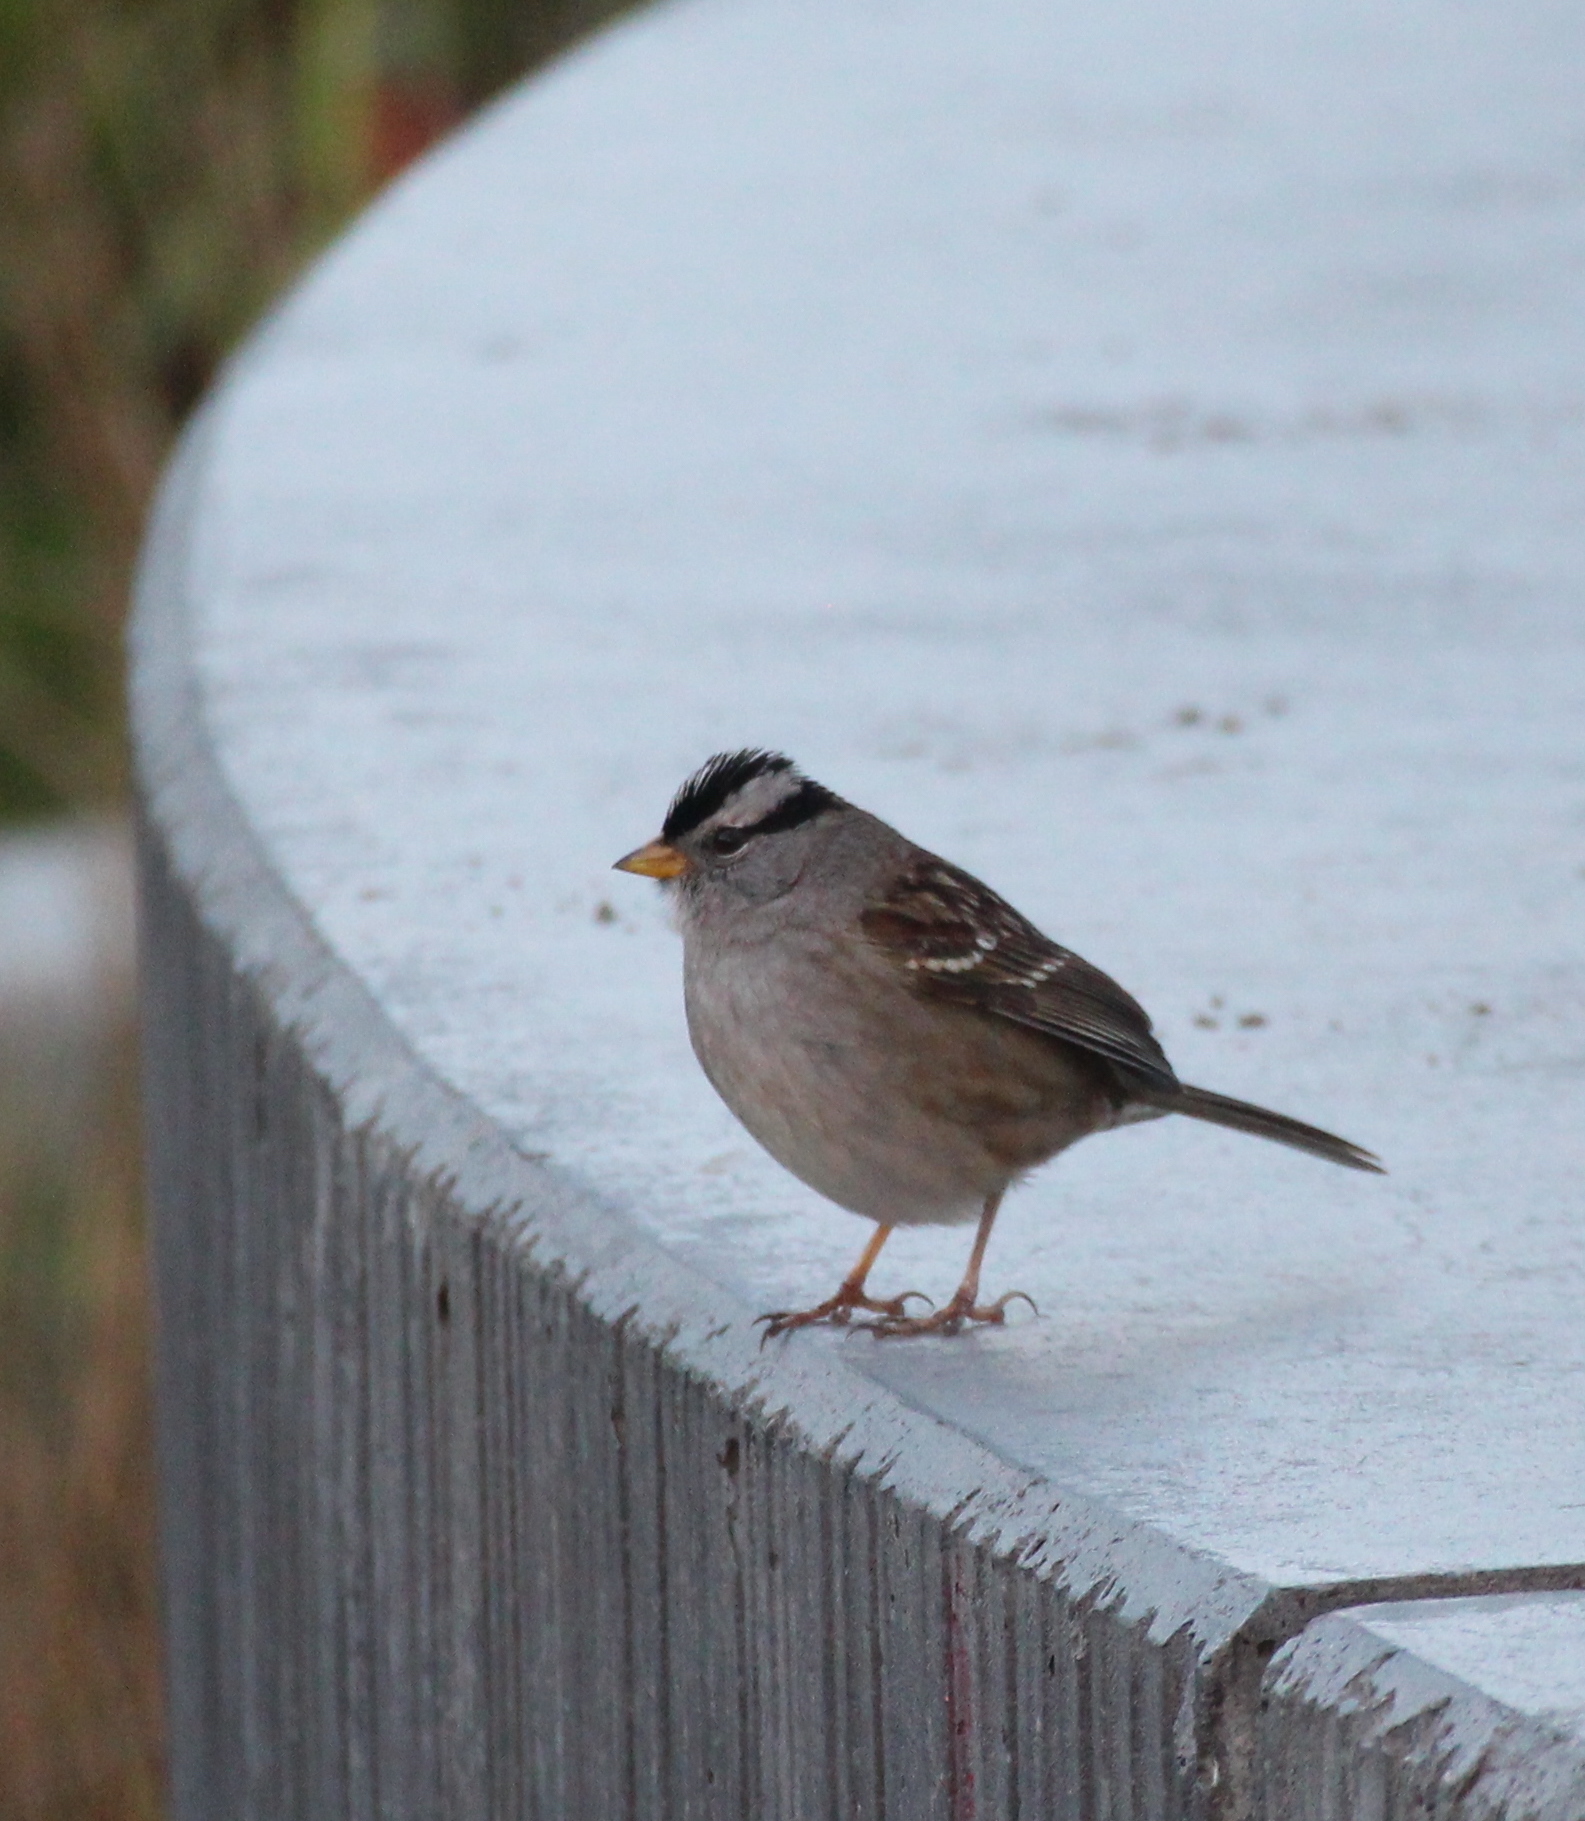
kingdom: Animalia
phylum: Chordata
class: Aves
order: Passeriformes
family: Passerellidae
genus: Zonotrichia
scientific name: Zonotrichia leucophrys
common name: White-crowned sparrow
